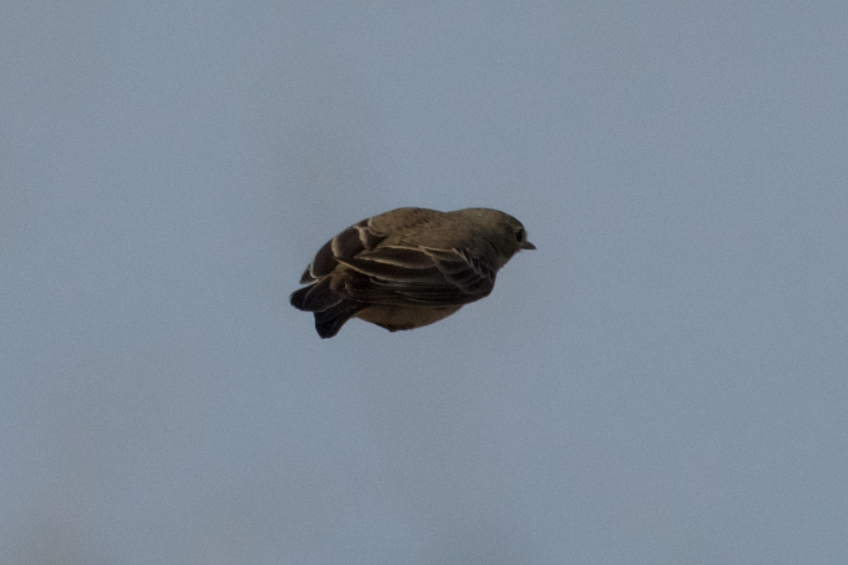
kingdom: Animalia
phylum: Chordata
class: Aves
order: Passeriformes
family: Motacillidae
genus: Anthus
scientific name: Anthus rubescens
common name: Buff-bellied pipit
